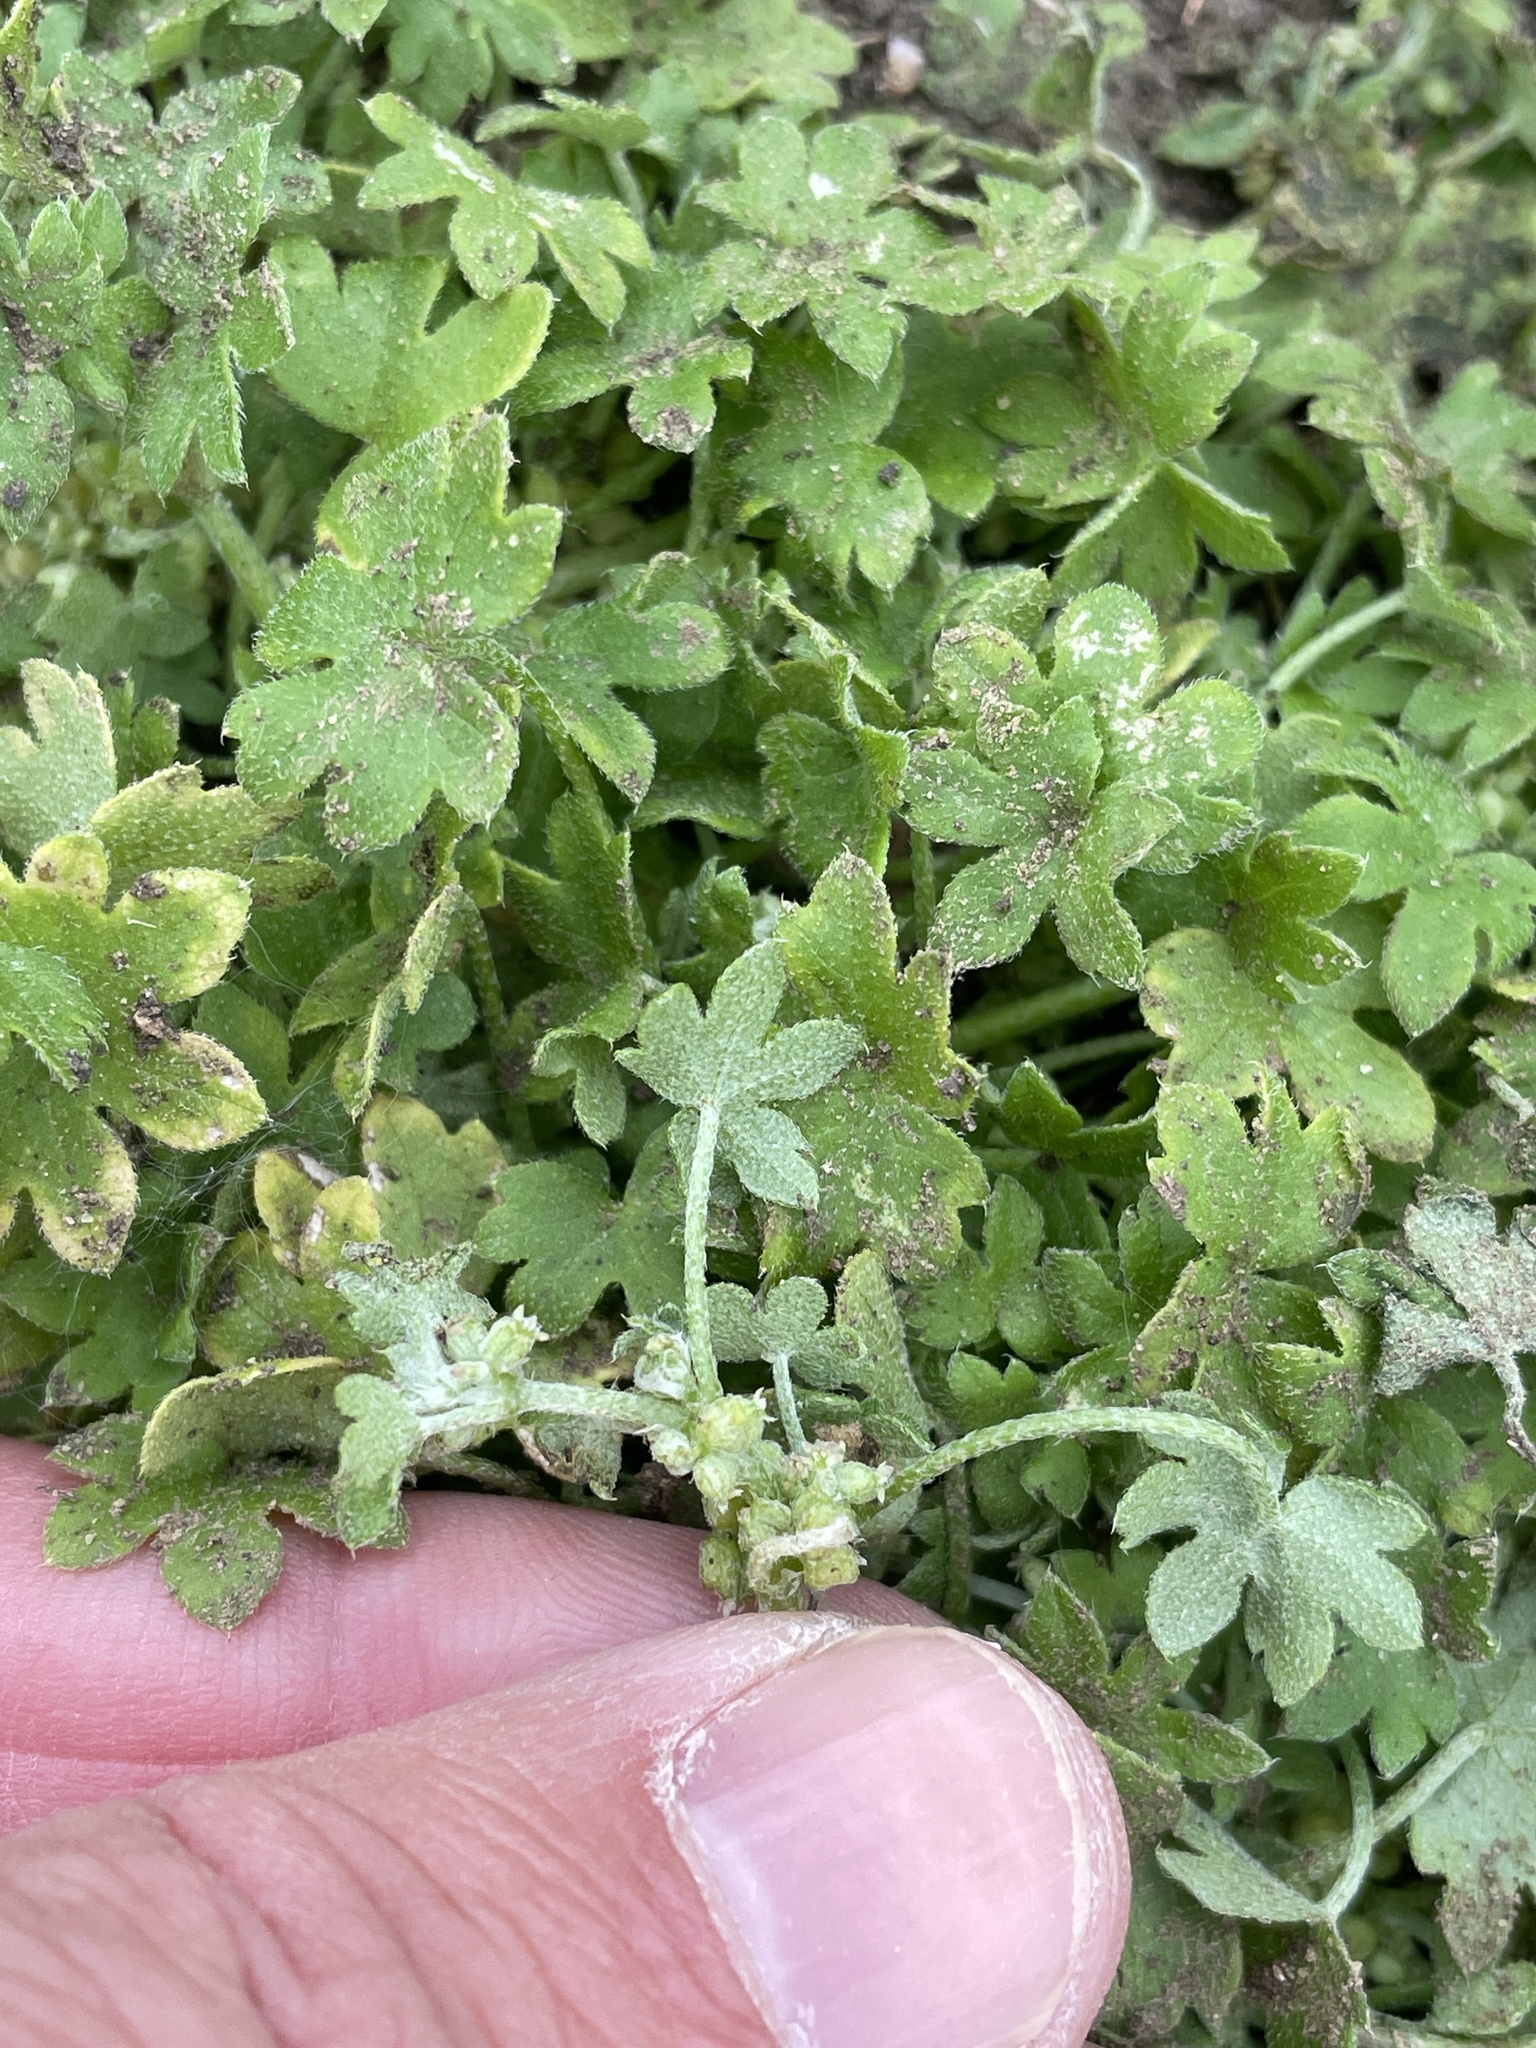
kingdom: Plantae
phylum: Tracheophyta
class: Magnoliopsida
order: Apiales
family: Apiaceae
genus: Bowlesia
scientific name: Bowlesia incana
